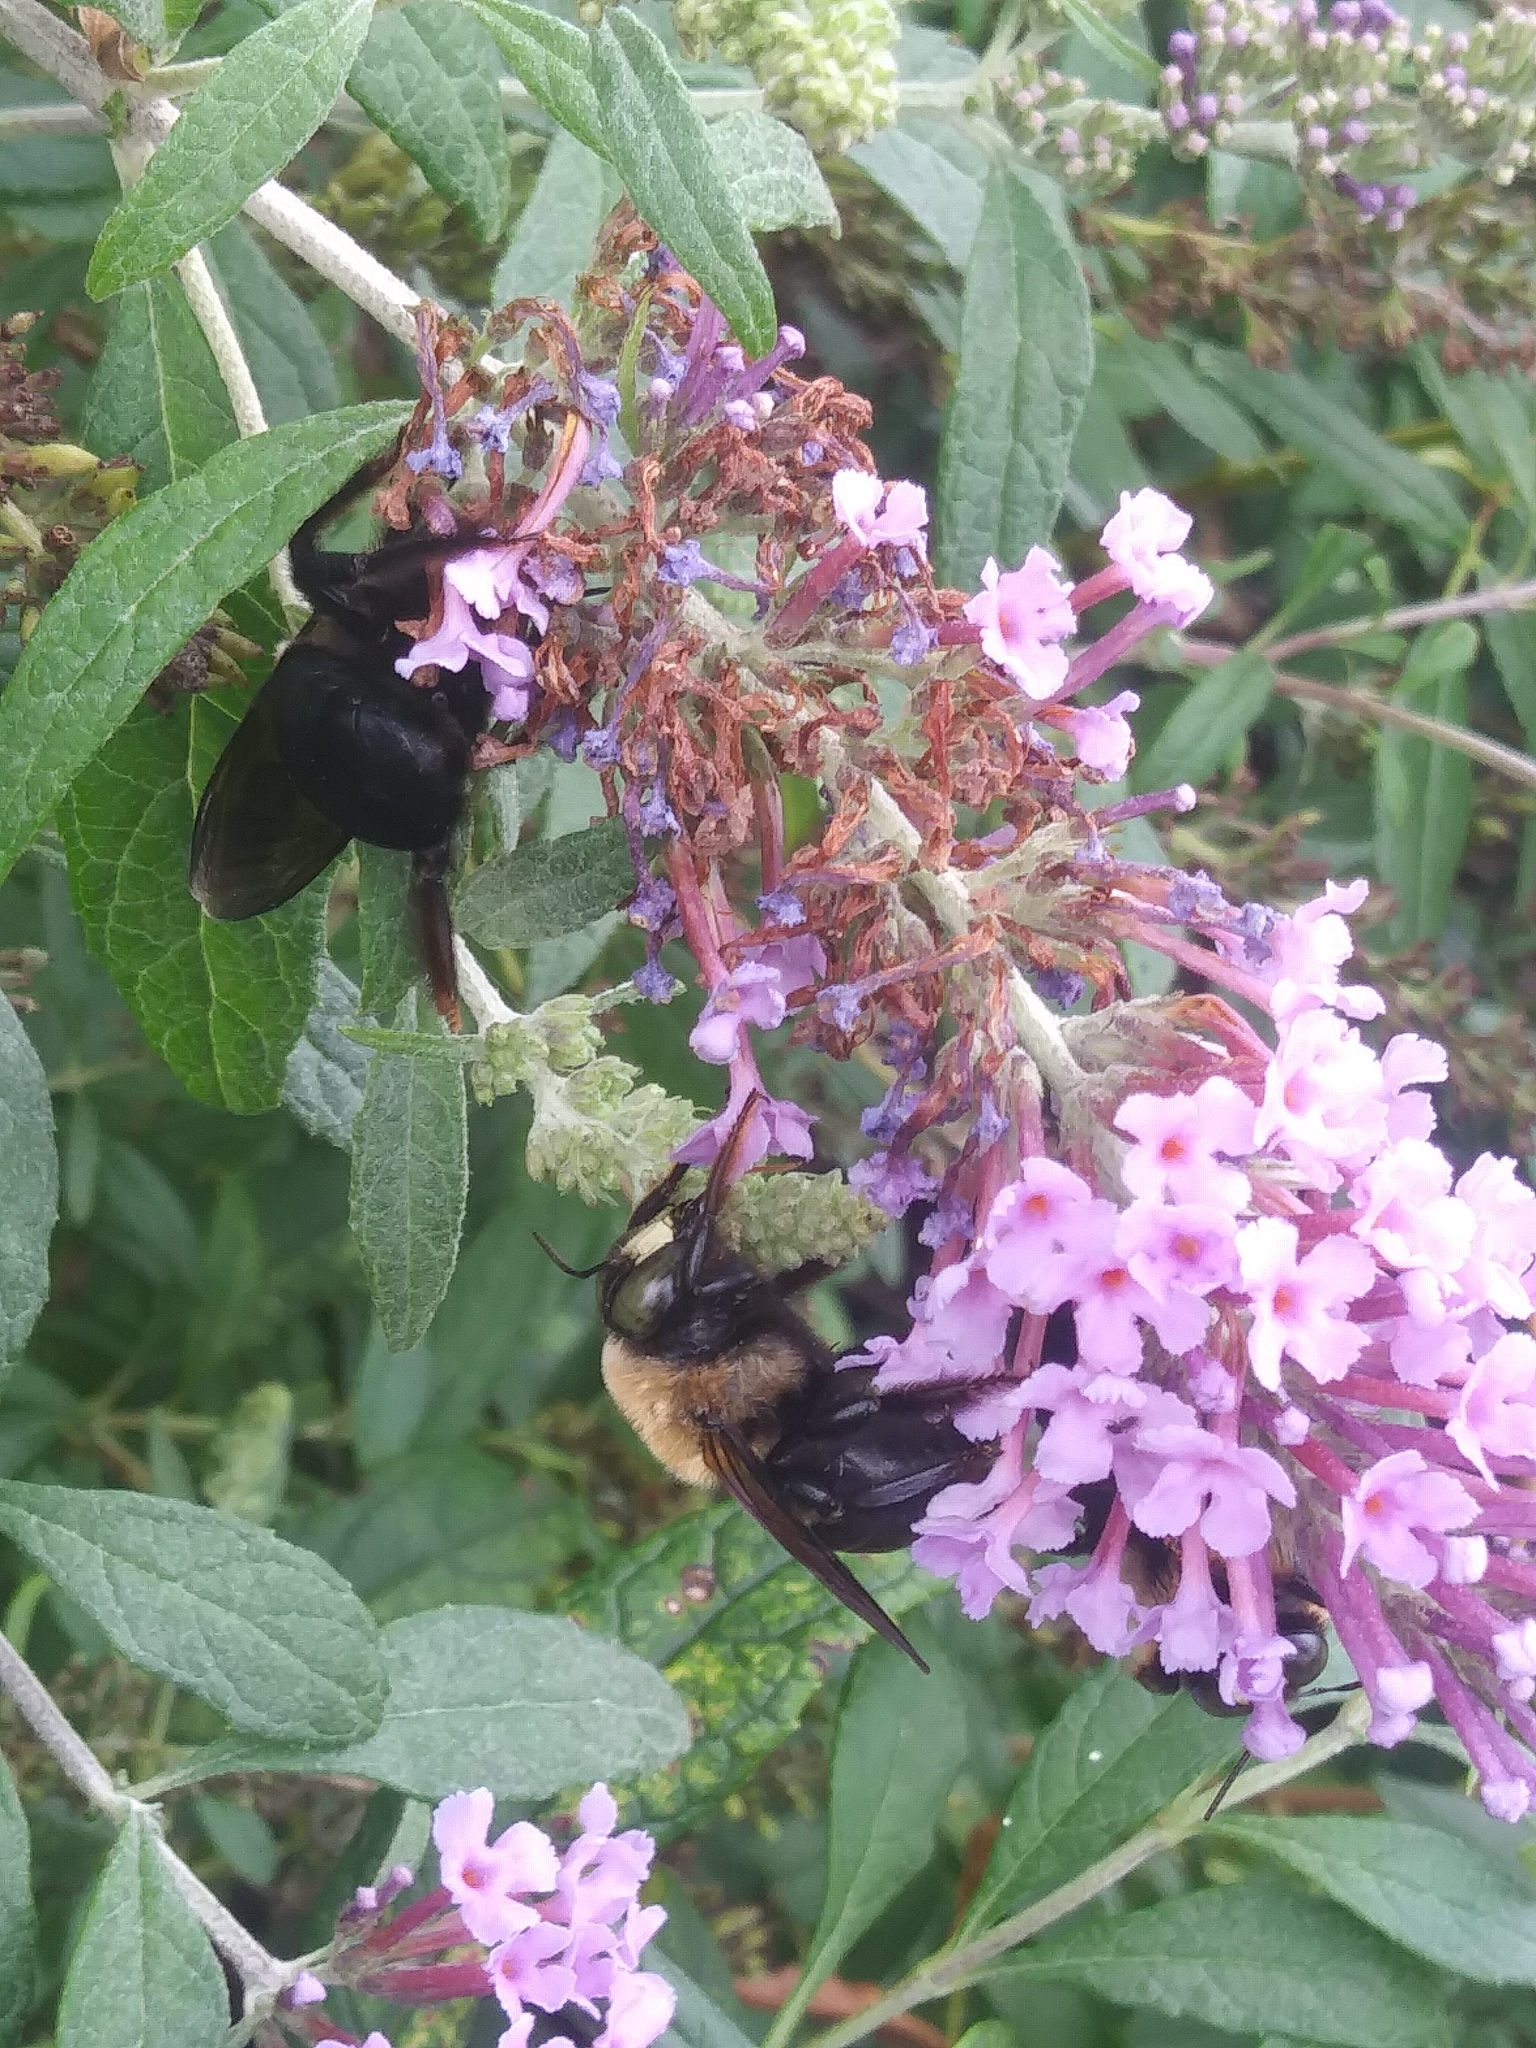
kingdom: Animalia
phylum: Arthropoda
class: Insecta
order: Hymenoptera
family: Apidae
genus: Xylocopa
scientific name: Xylocopa virginica
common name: Carpenter bee
